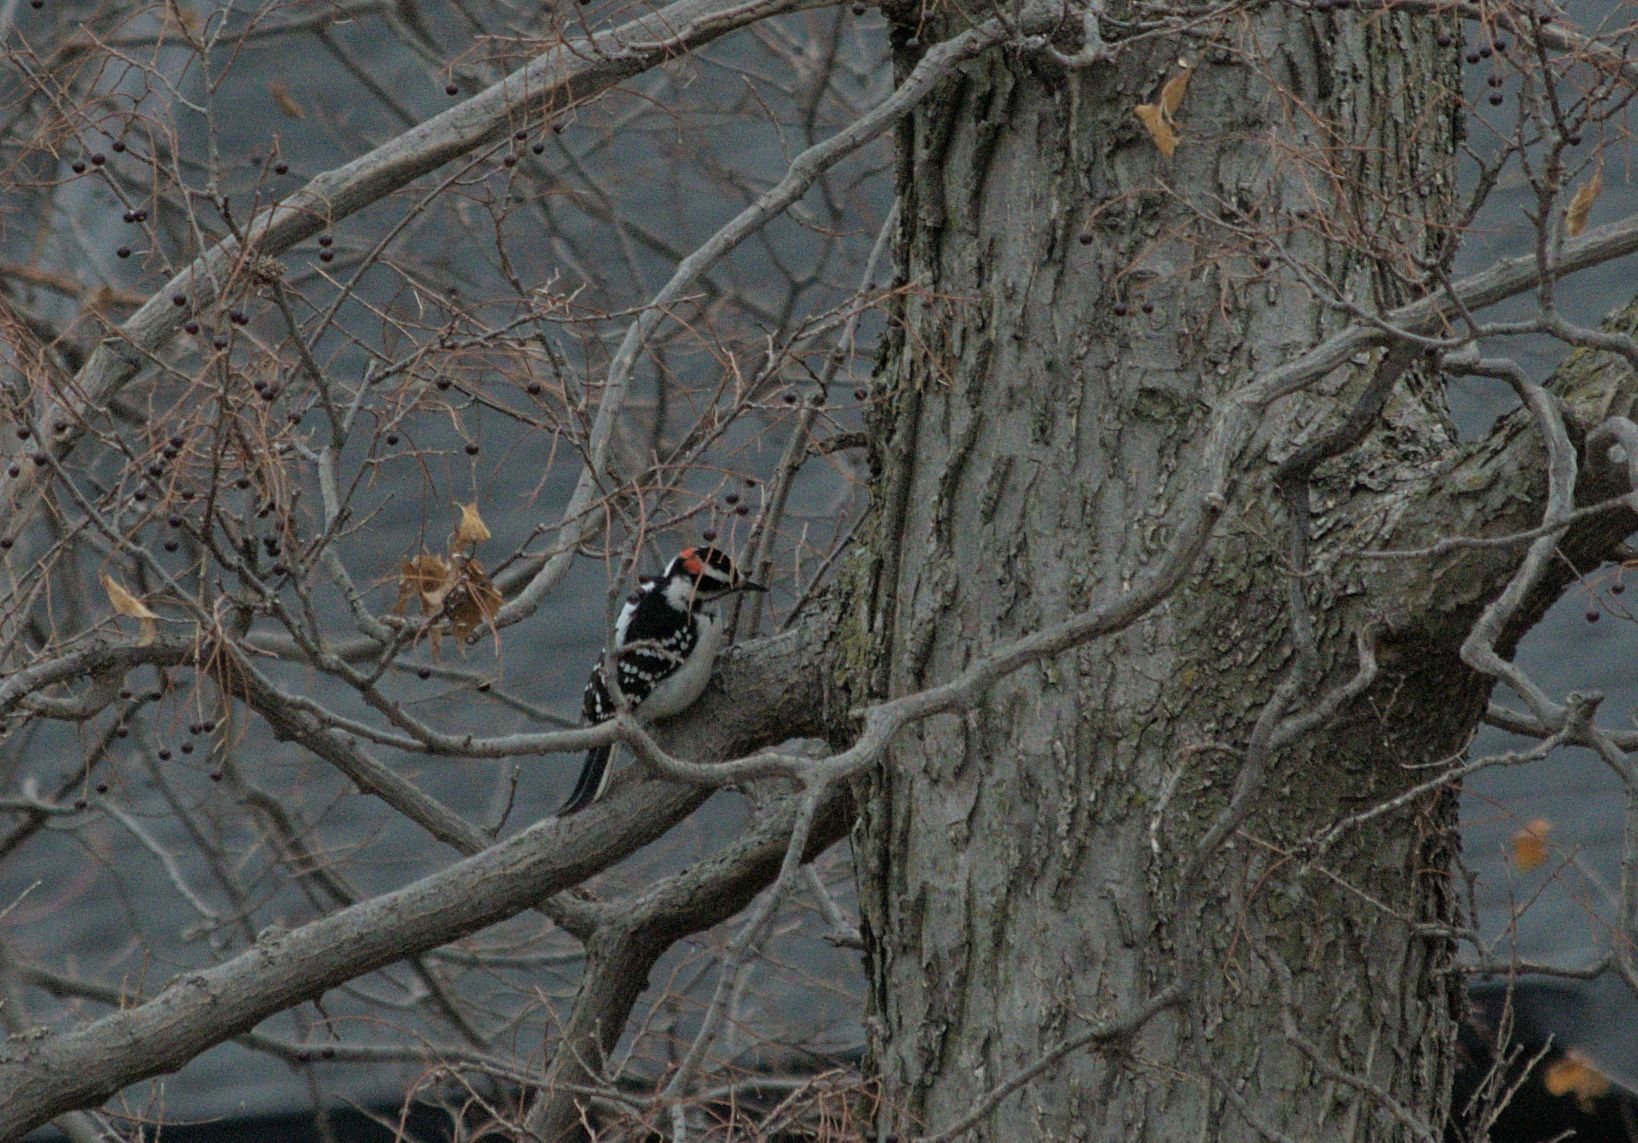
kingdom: Animalia
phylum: Chordata
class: Aves
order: Piciformes
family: Picidae
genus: Leuconotopicus
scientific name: Leuconotopicus villosus
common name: Hairy woodpecker
